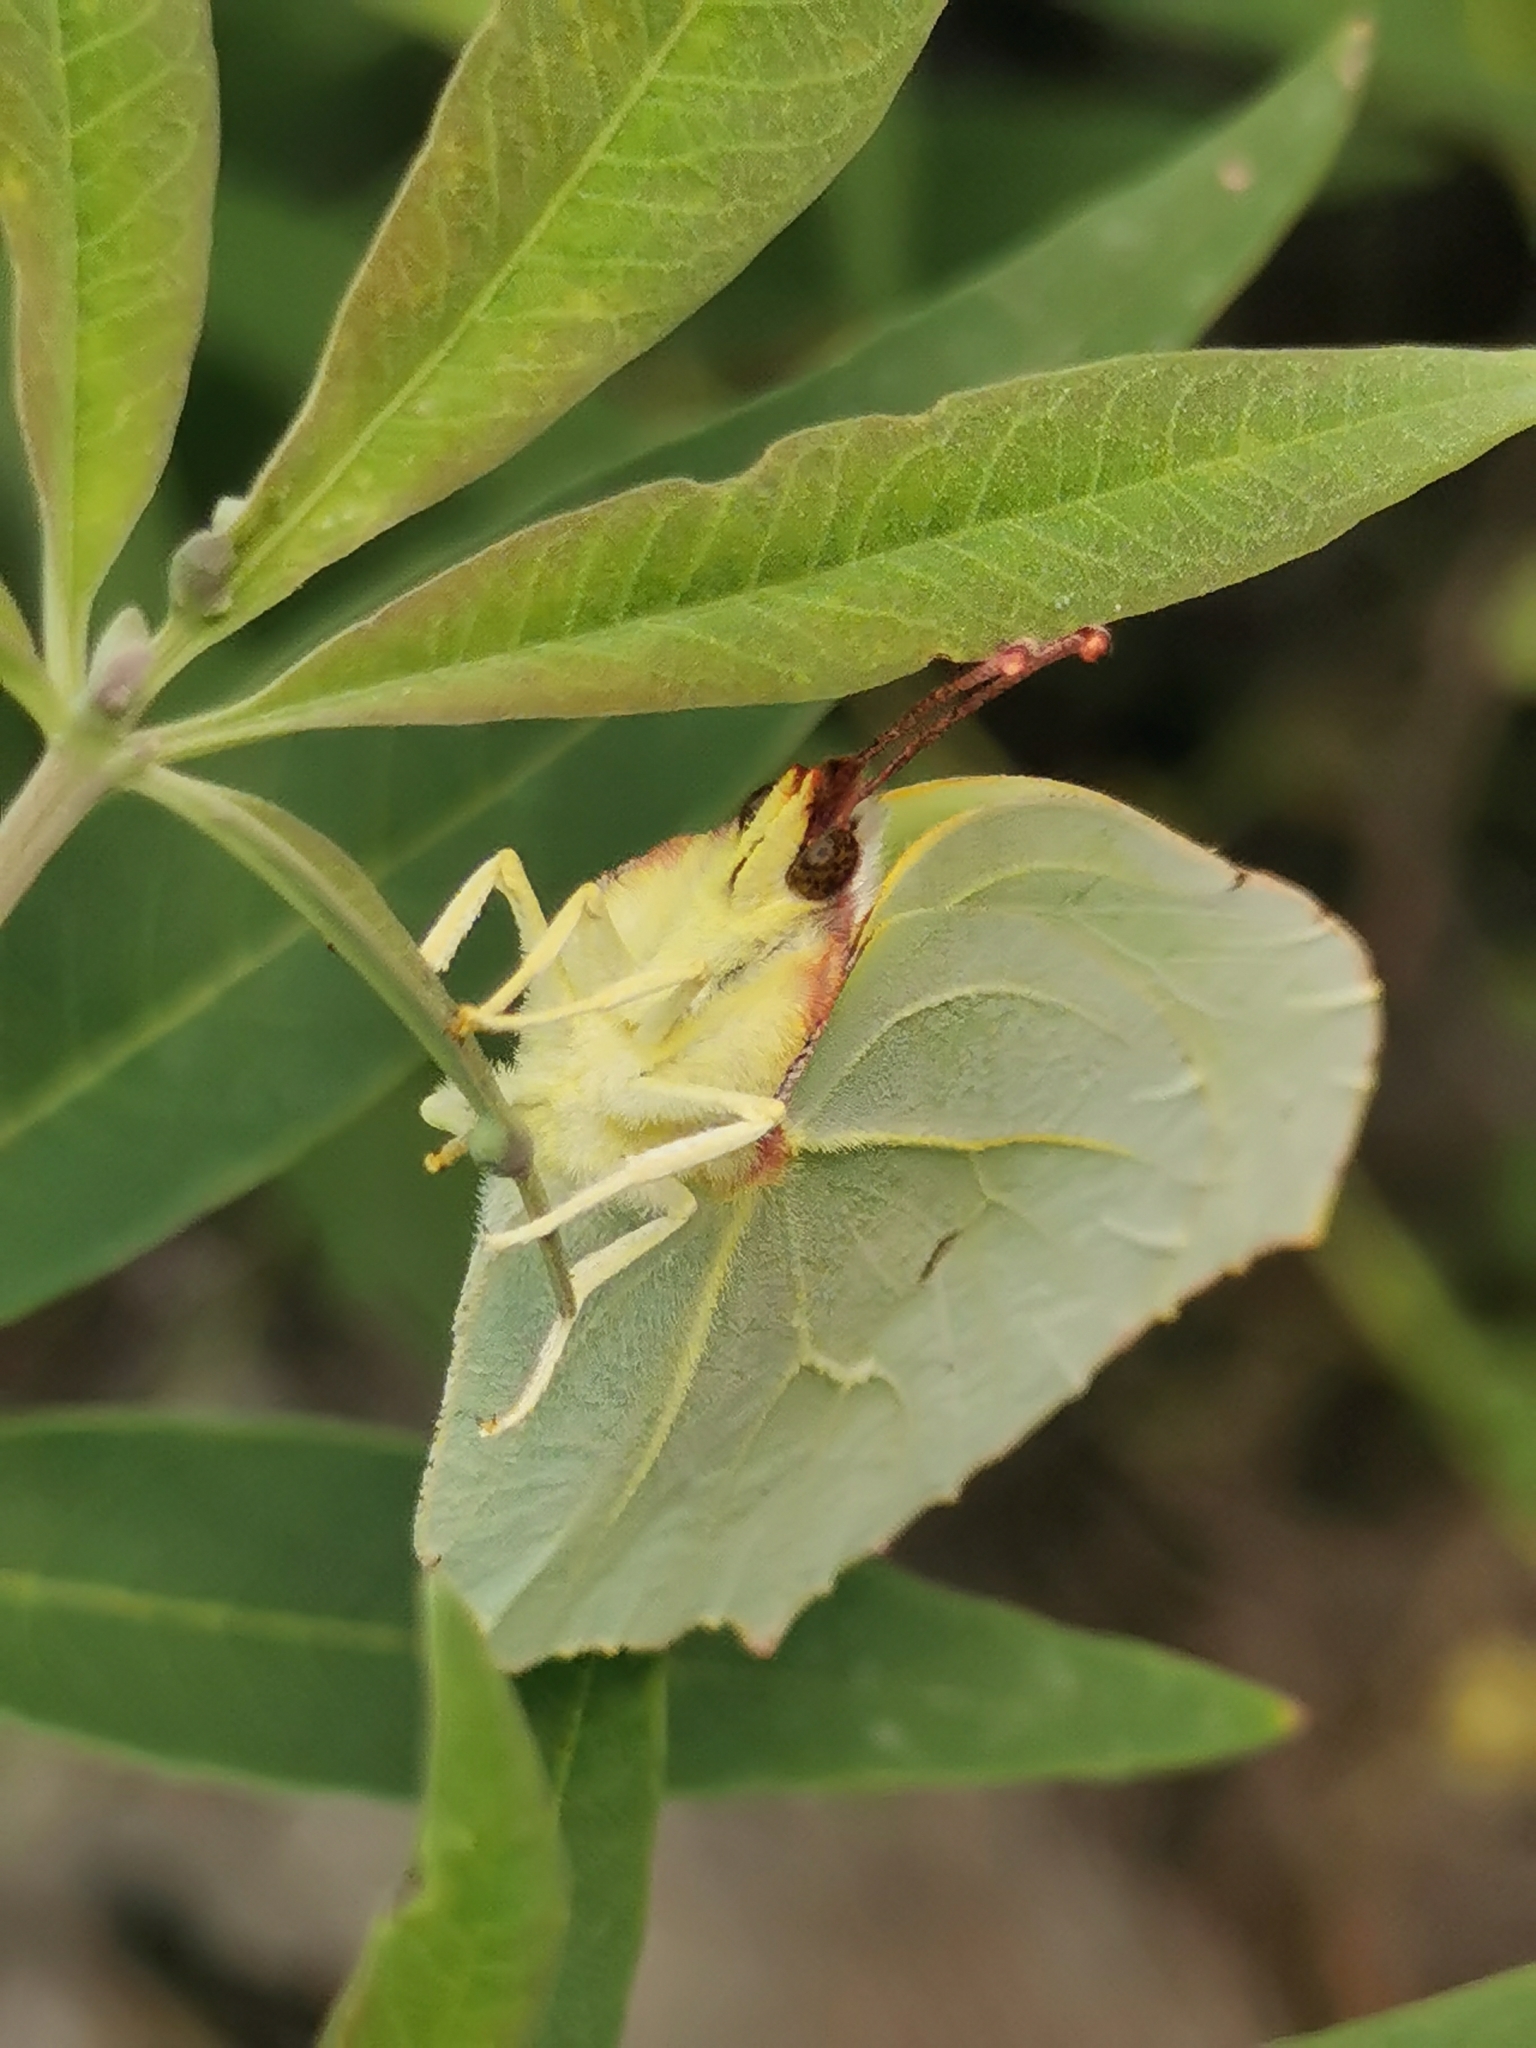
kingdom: Animalia
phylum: Arthropoda
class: Insecta
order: Lepidoptera
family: Pieridae
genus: Gonepteryx
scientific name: Gonepteryx rhamni
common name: Brimstone
